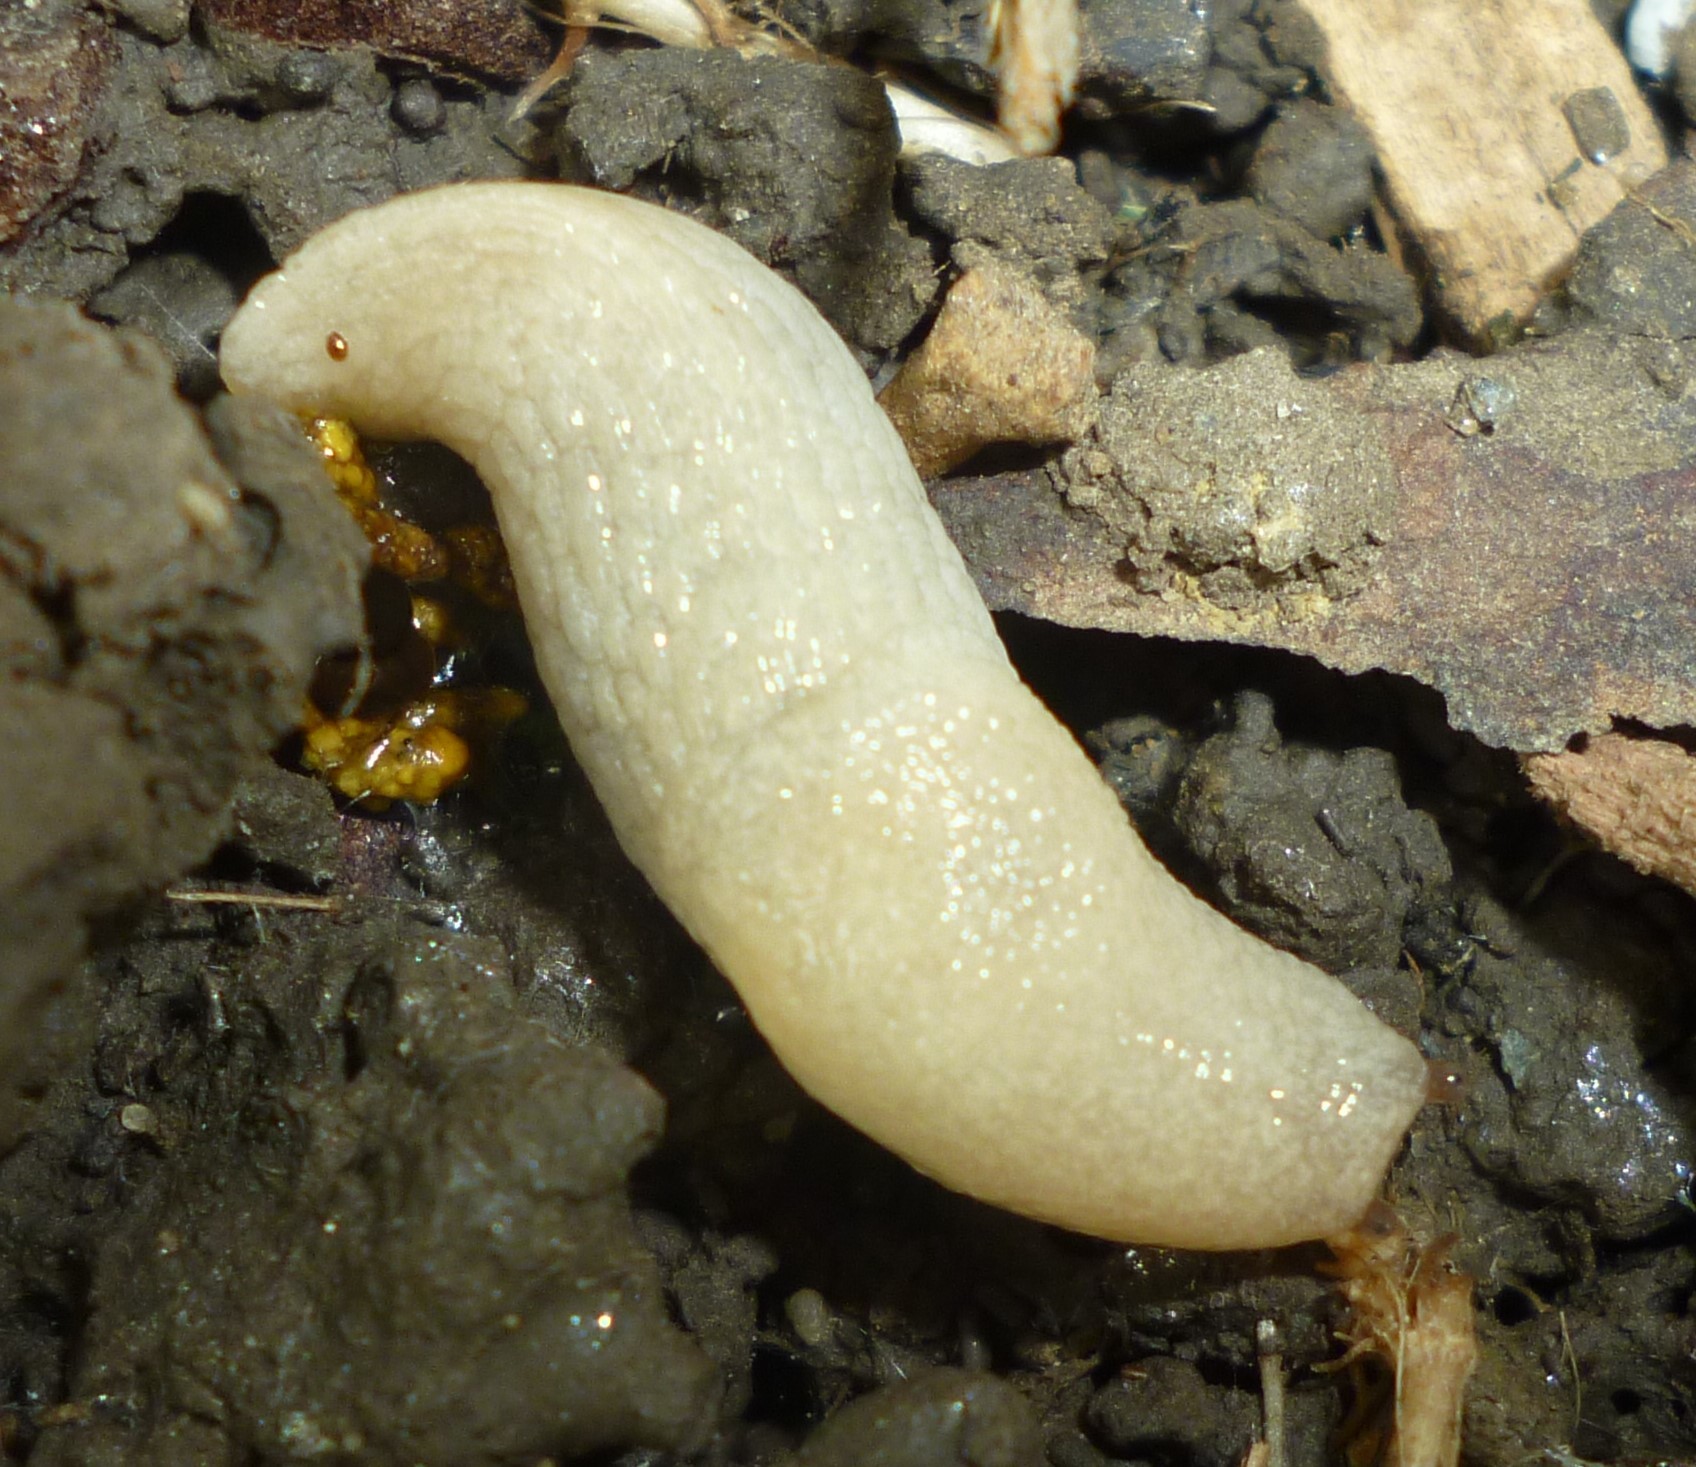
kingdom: Animalia
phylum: Mollusca
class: Gastropoda
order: Stylommatophora
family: Agriolimacidae
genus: Deroceras
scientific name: Deroceras reticulatum
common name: Gray field slug
